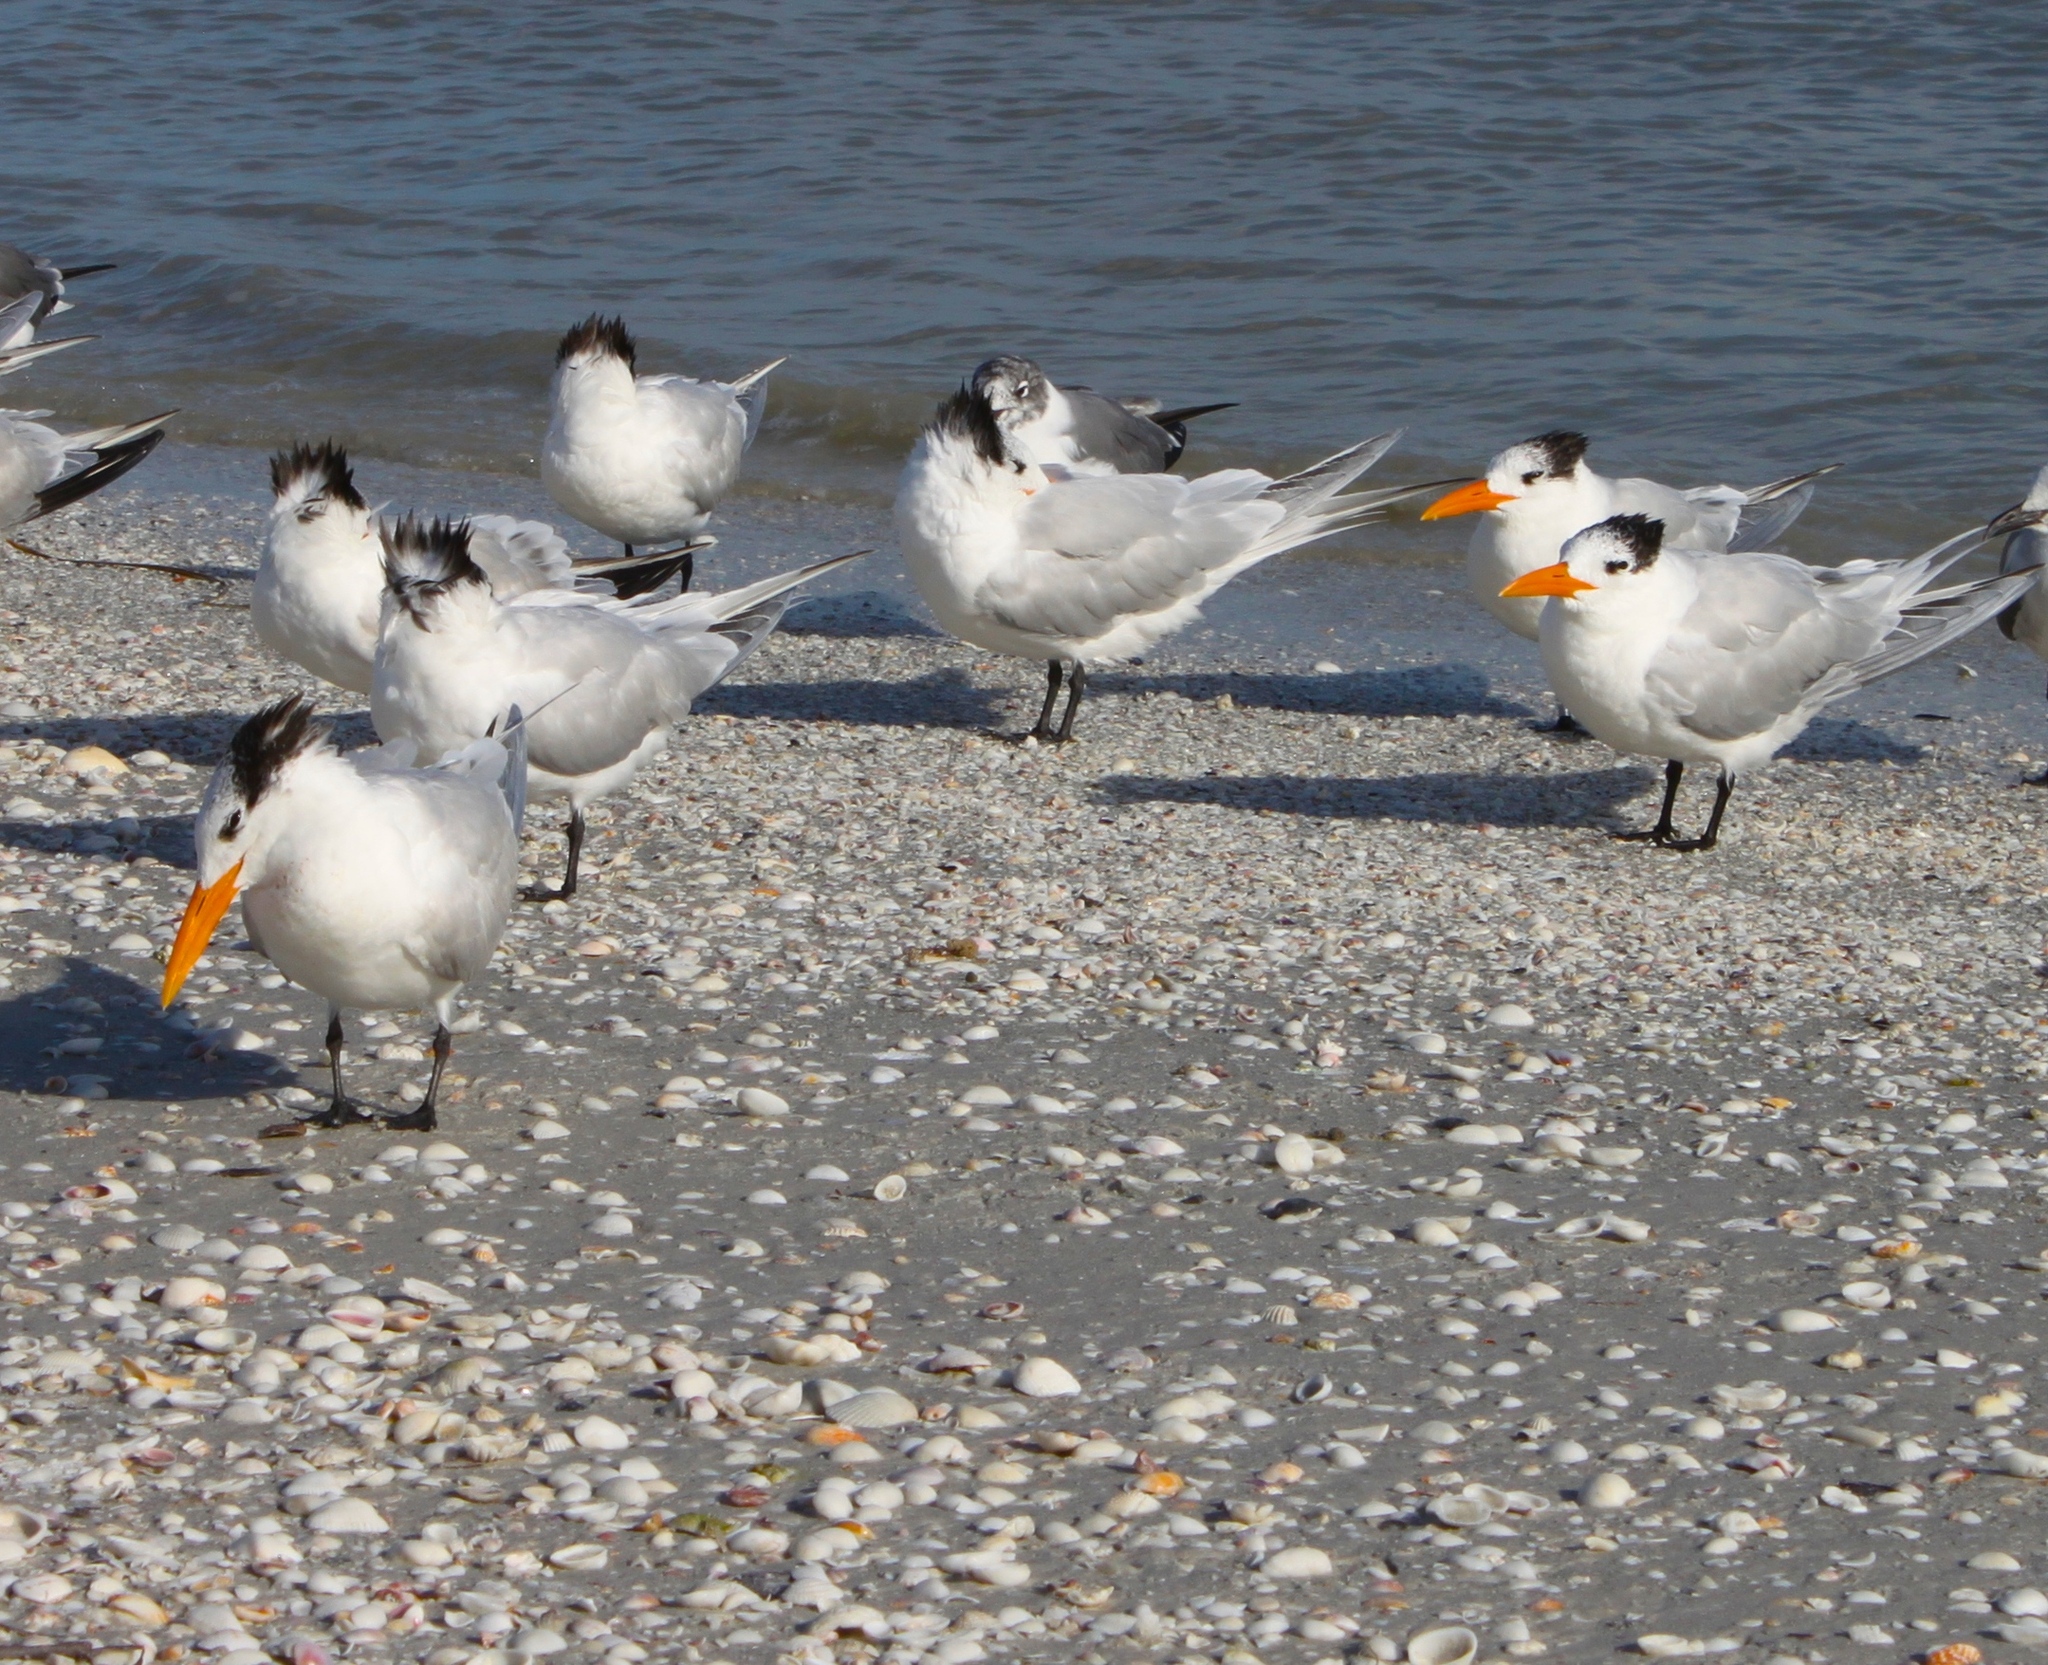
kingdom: Animalia
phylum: Chordata
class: Aves
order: Charadriiformes
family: Laridae
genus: Thalasseus
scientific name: Thalasseus maximus
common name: Royal tern
